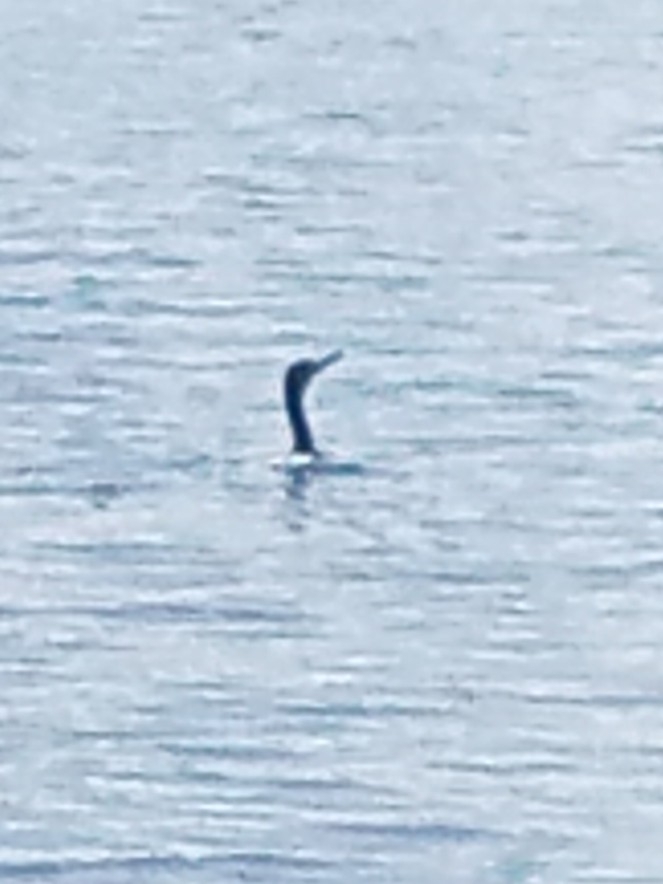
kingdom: Animalia
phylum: Chordata
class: Aves
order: Suliformes
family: Phalacrocoracidae
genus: Phalacrocorax
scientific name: Phalacrocorax auritus
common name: Double-crested cormorant
